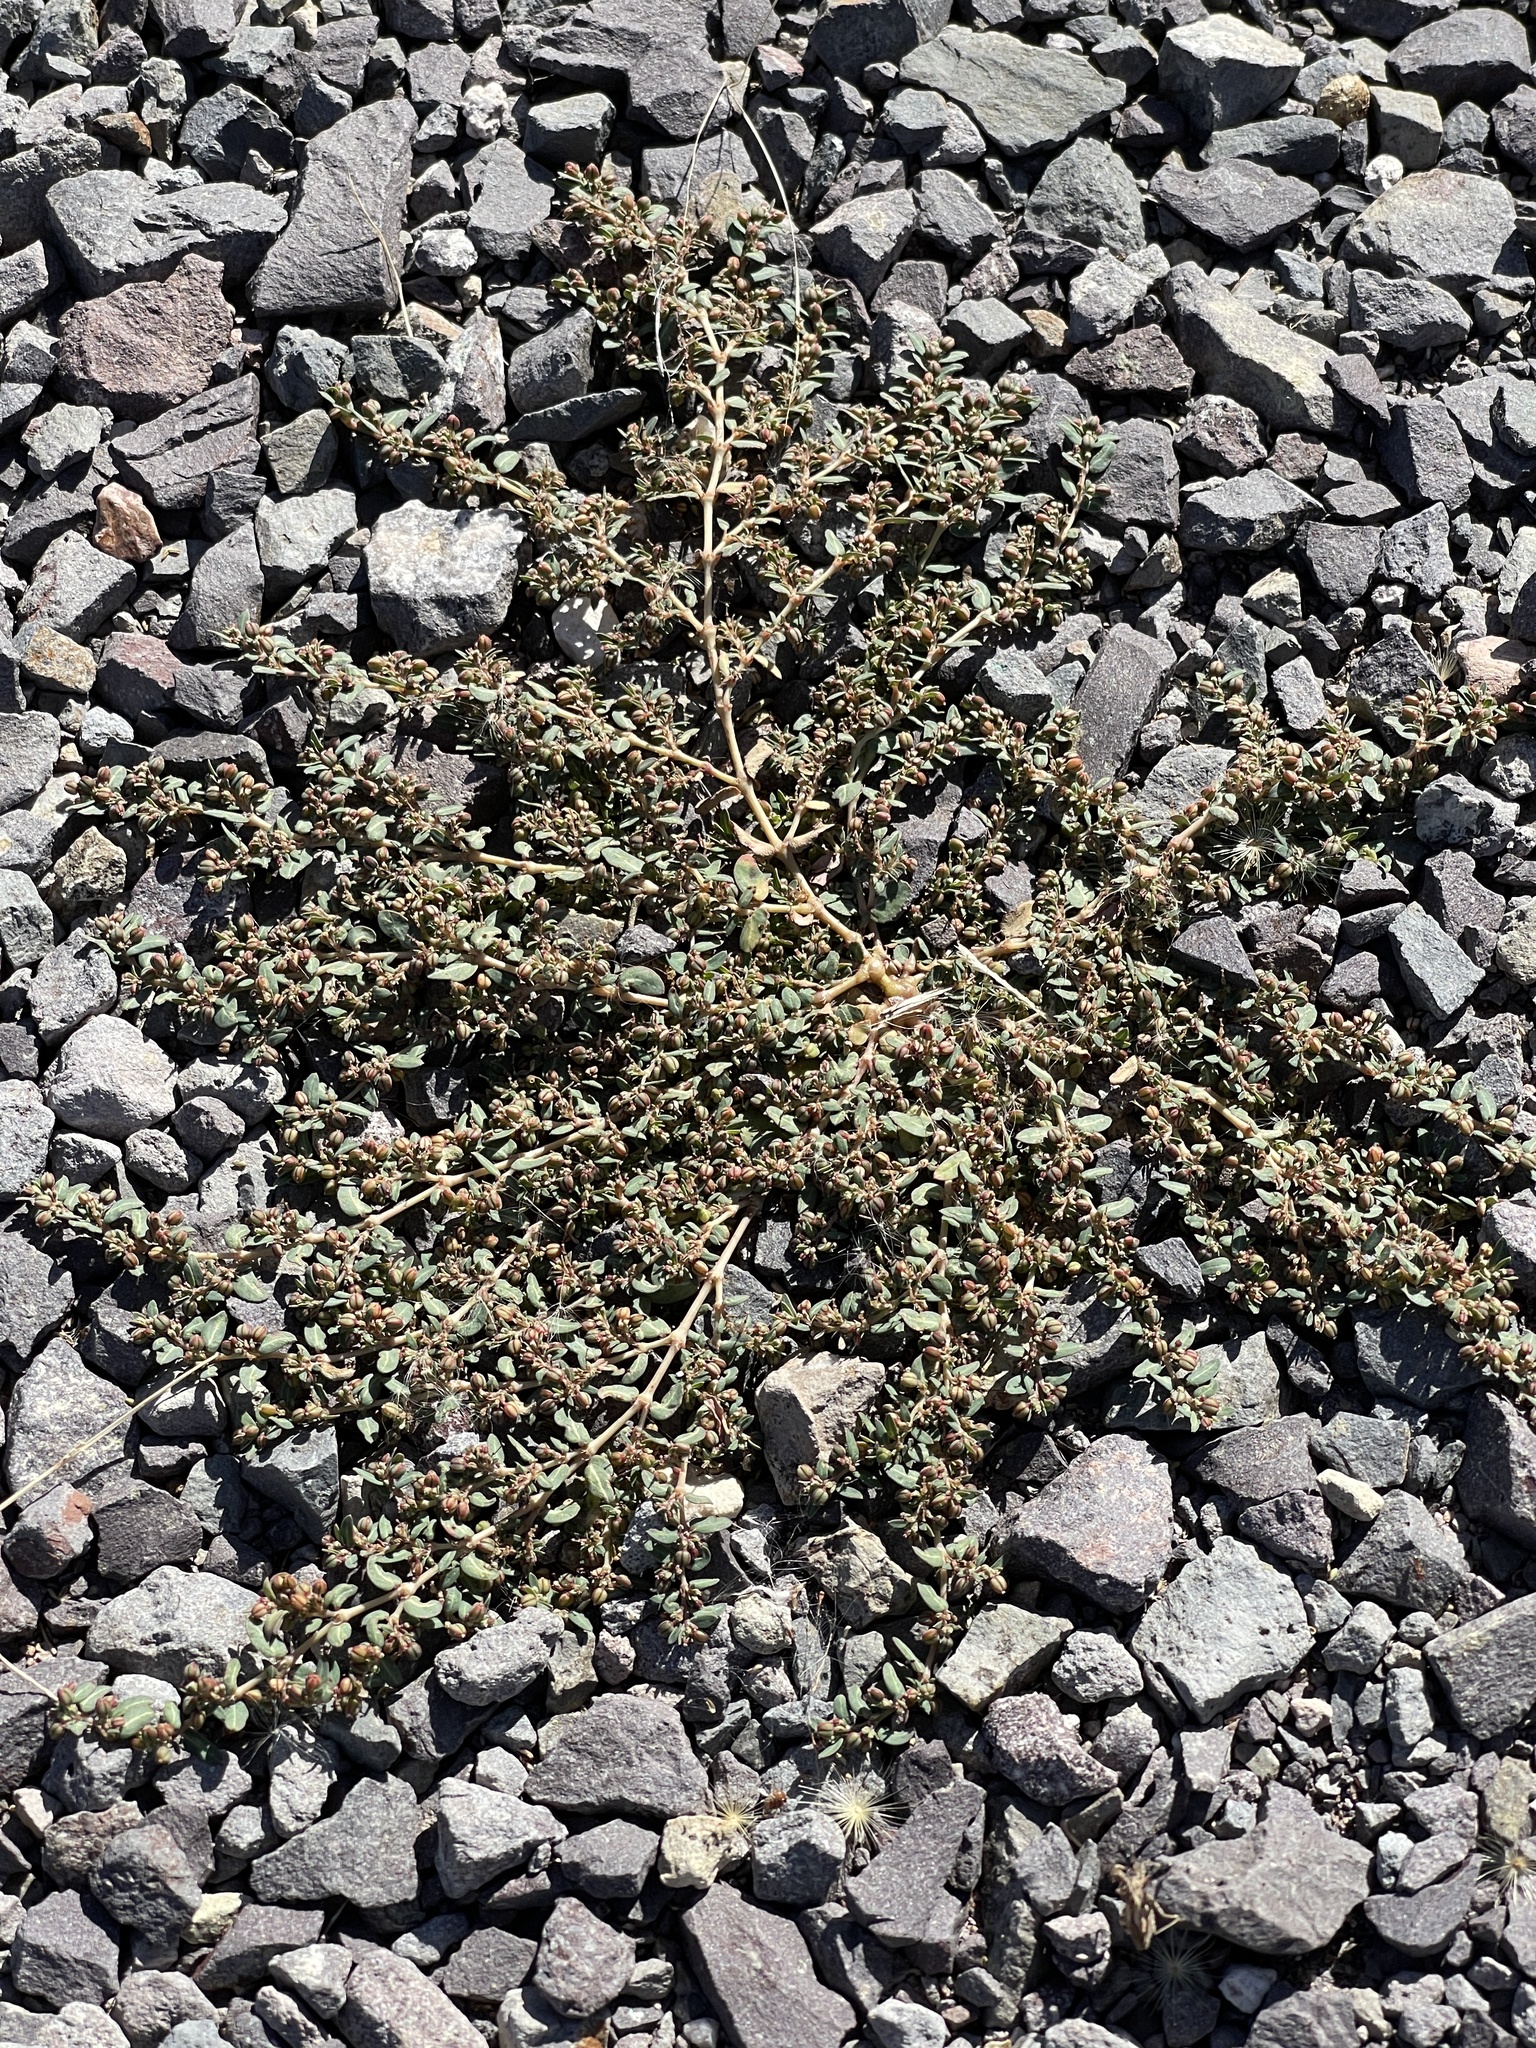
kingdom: Plantae
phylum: Tracheophyta
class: Magnoliopsida
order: Malpighiales
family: Euphorbiaceae
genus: Euphorbia
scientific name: Euphorbia abramsiana
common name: Abram's spurge
